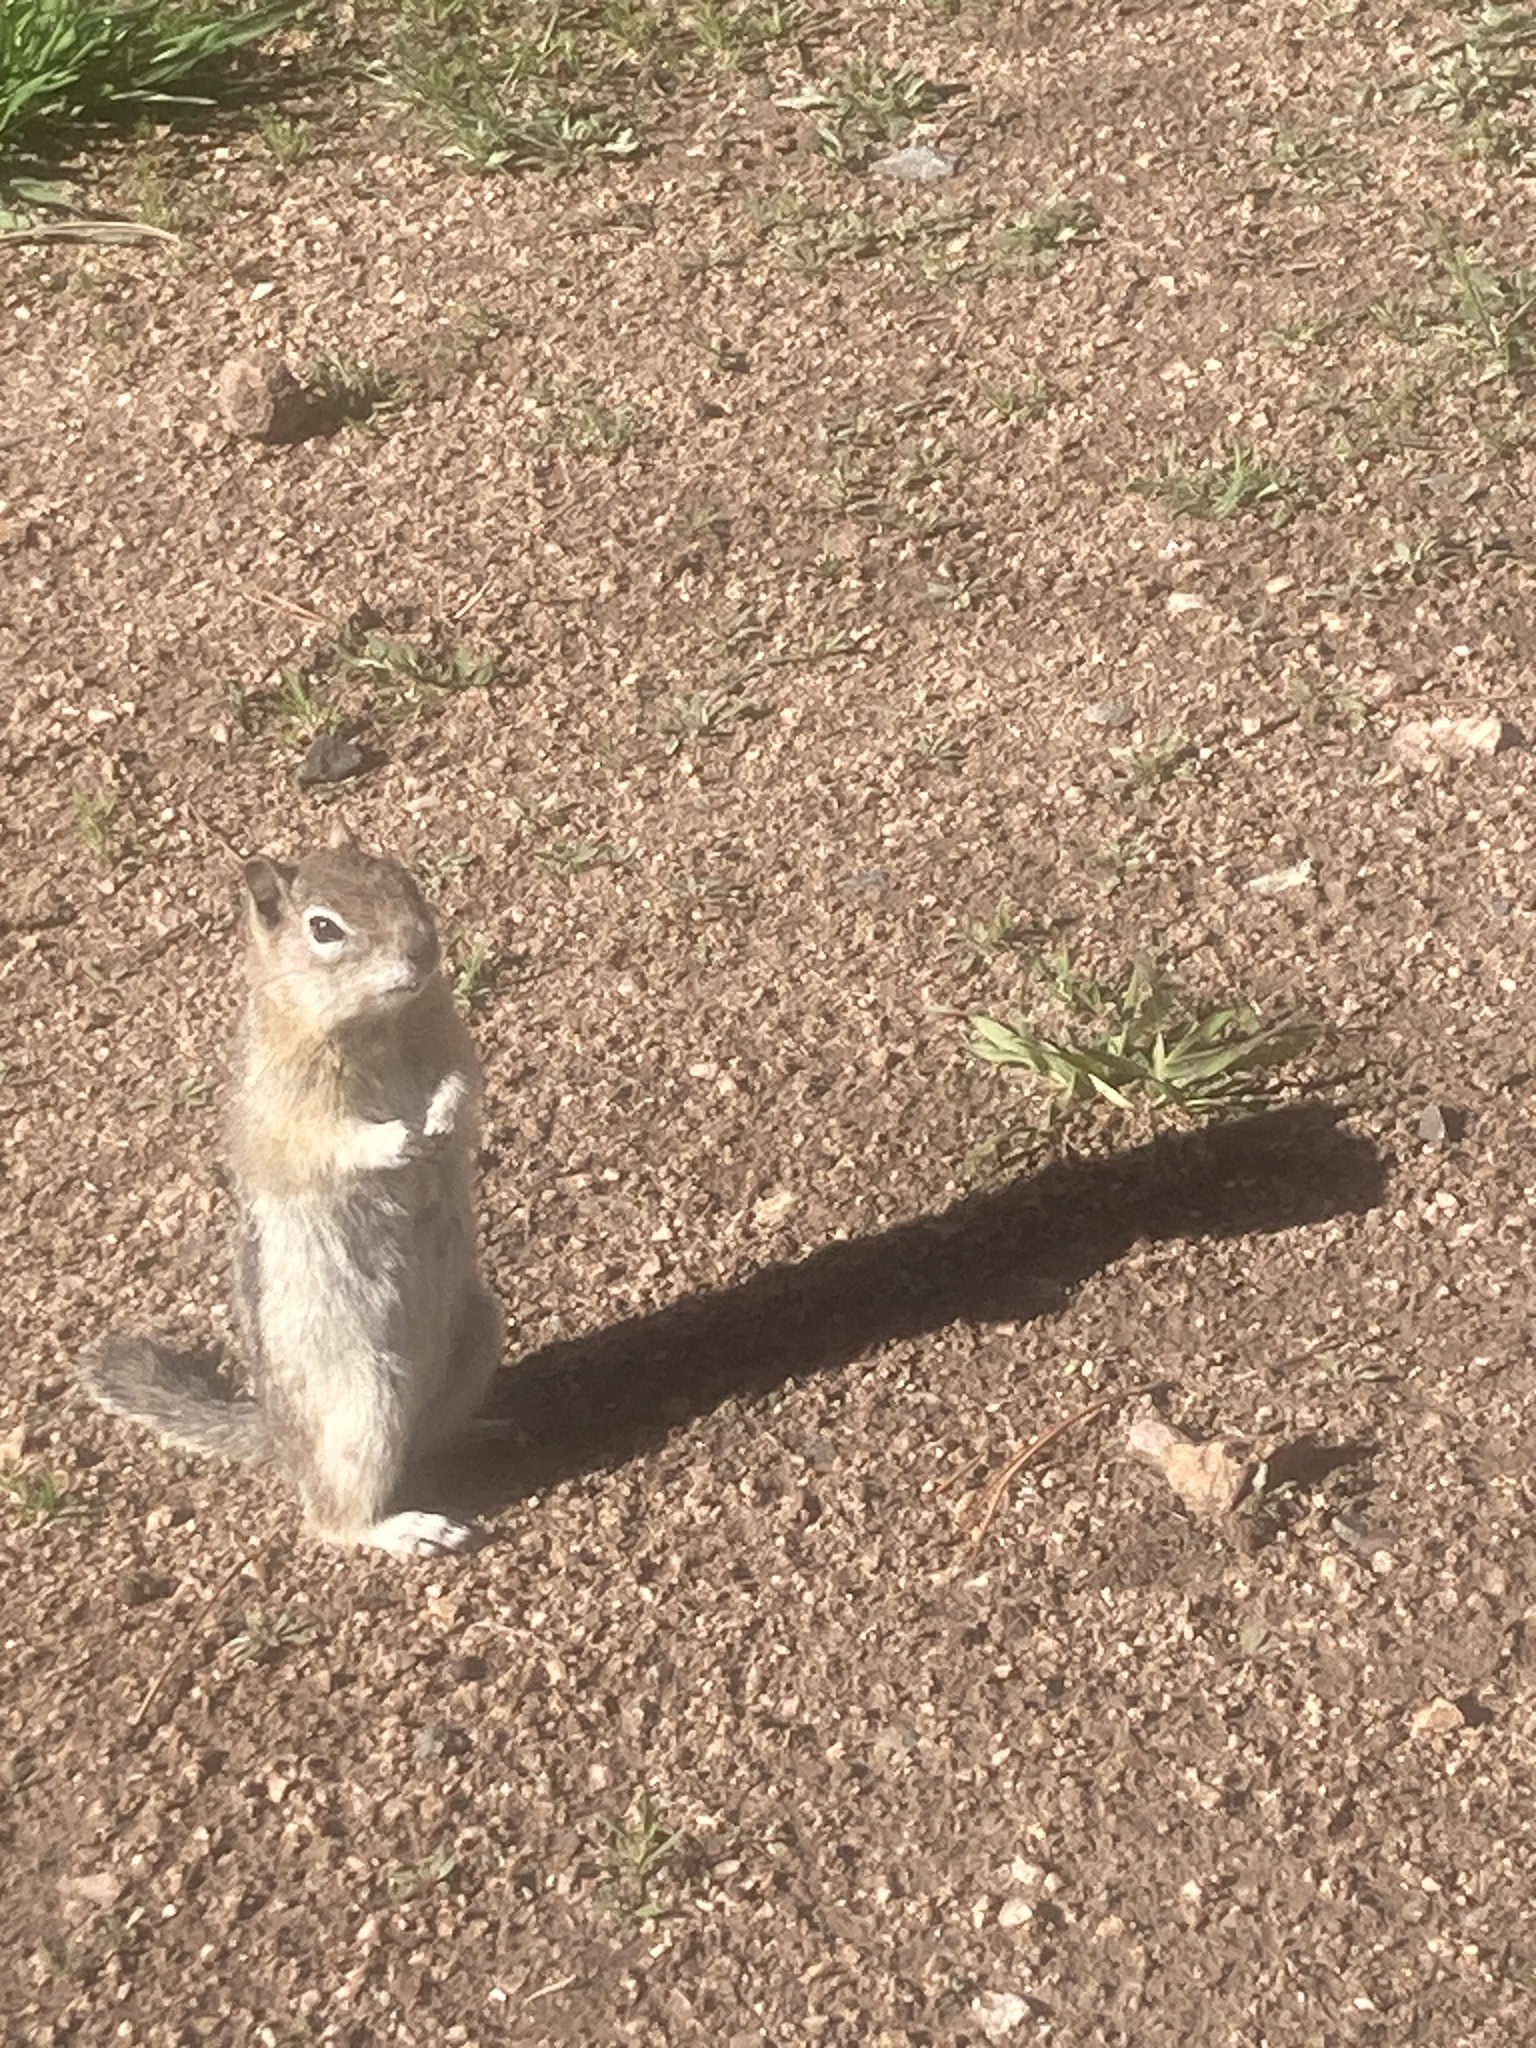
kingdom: Animalia
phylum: Chordata
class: Mammalia
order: Rodentia
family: Sciuridae
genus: Callospermophilus
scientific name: Callospermophilus lateralis
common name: Golden-mantled ground squirrel
